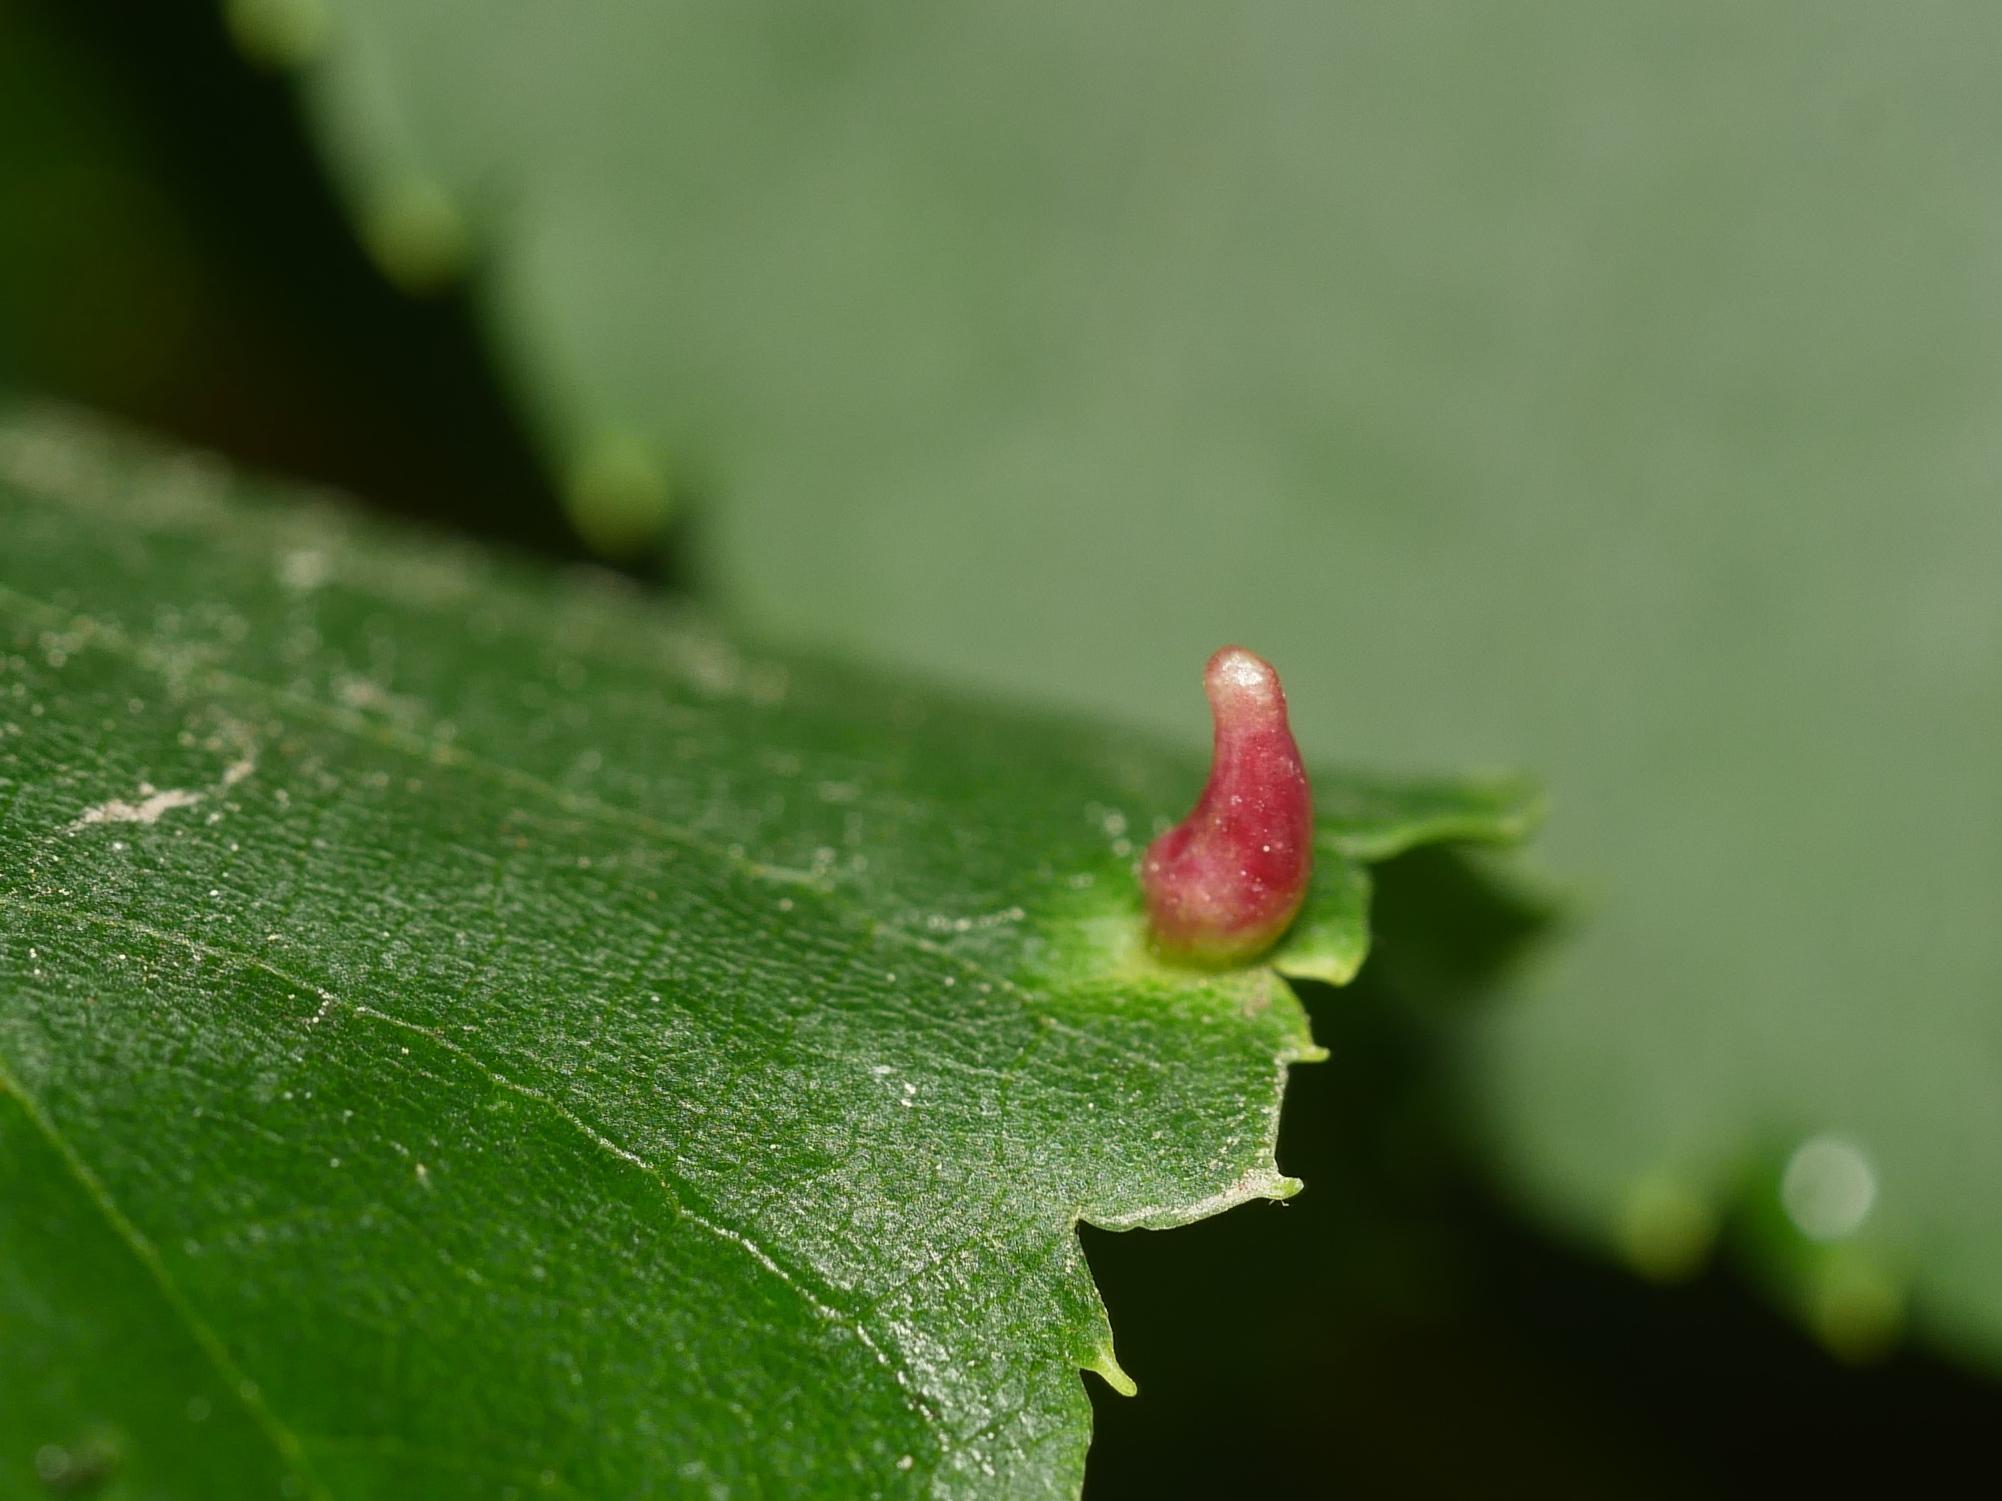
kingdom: Animalia
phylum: Arthropoda
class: Arachnida
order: Trombidiformes
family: Eriophyidae
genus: Eriophyes
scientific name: Eriophyes tiliae
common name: Red nail gall mite
